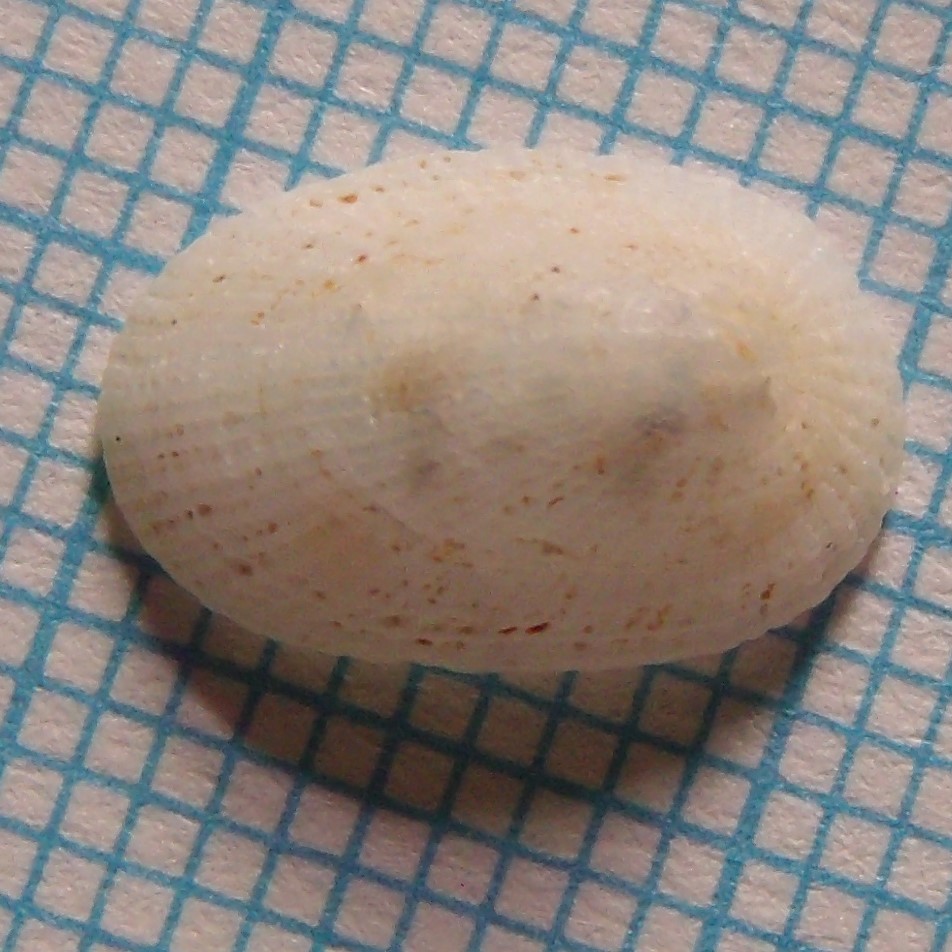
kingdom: Animalia
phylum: Mollusca
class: Gastropoda
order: Lepetellida
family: Fissurellidae
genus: Tugali
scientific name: Tugali suteri
